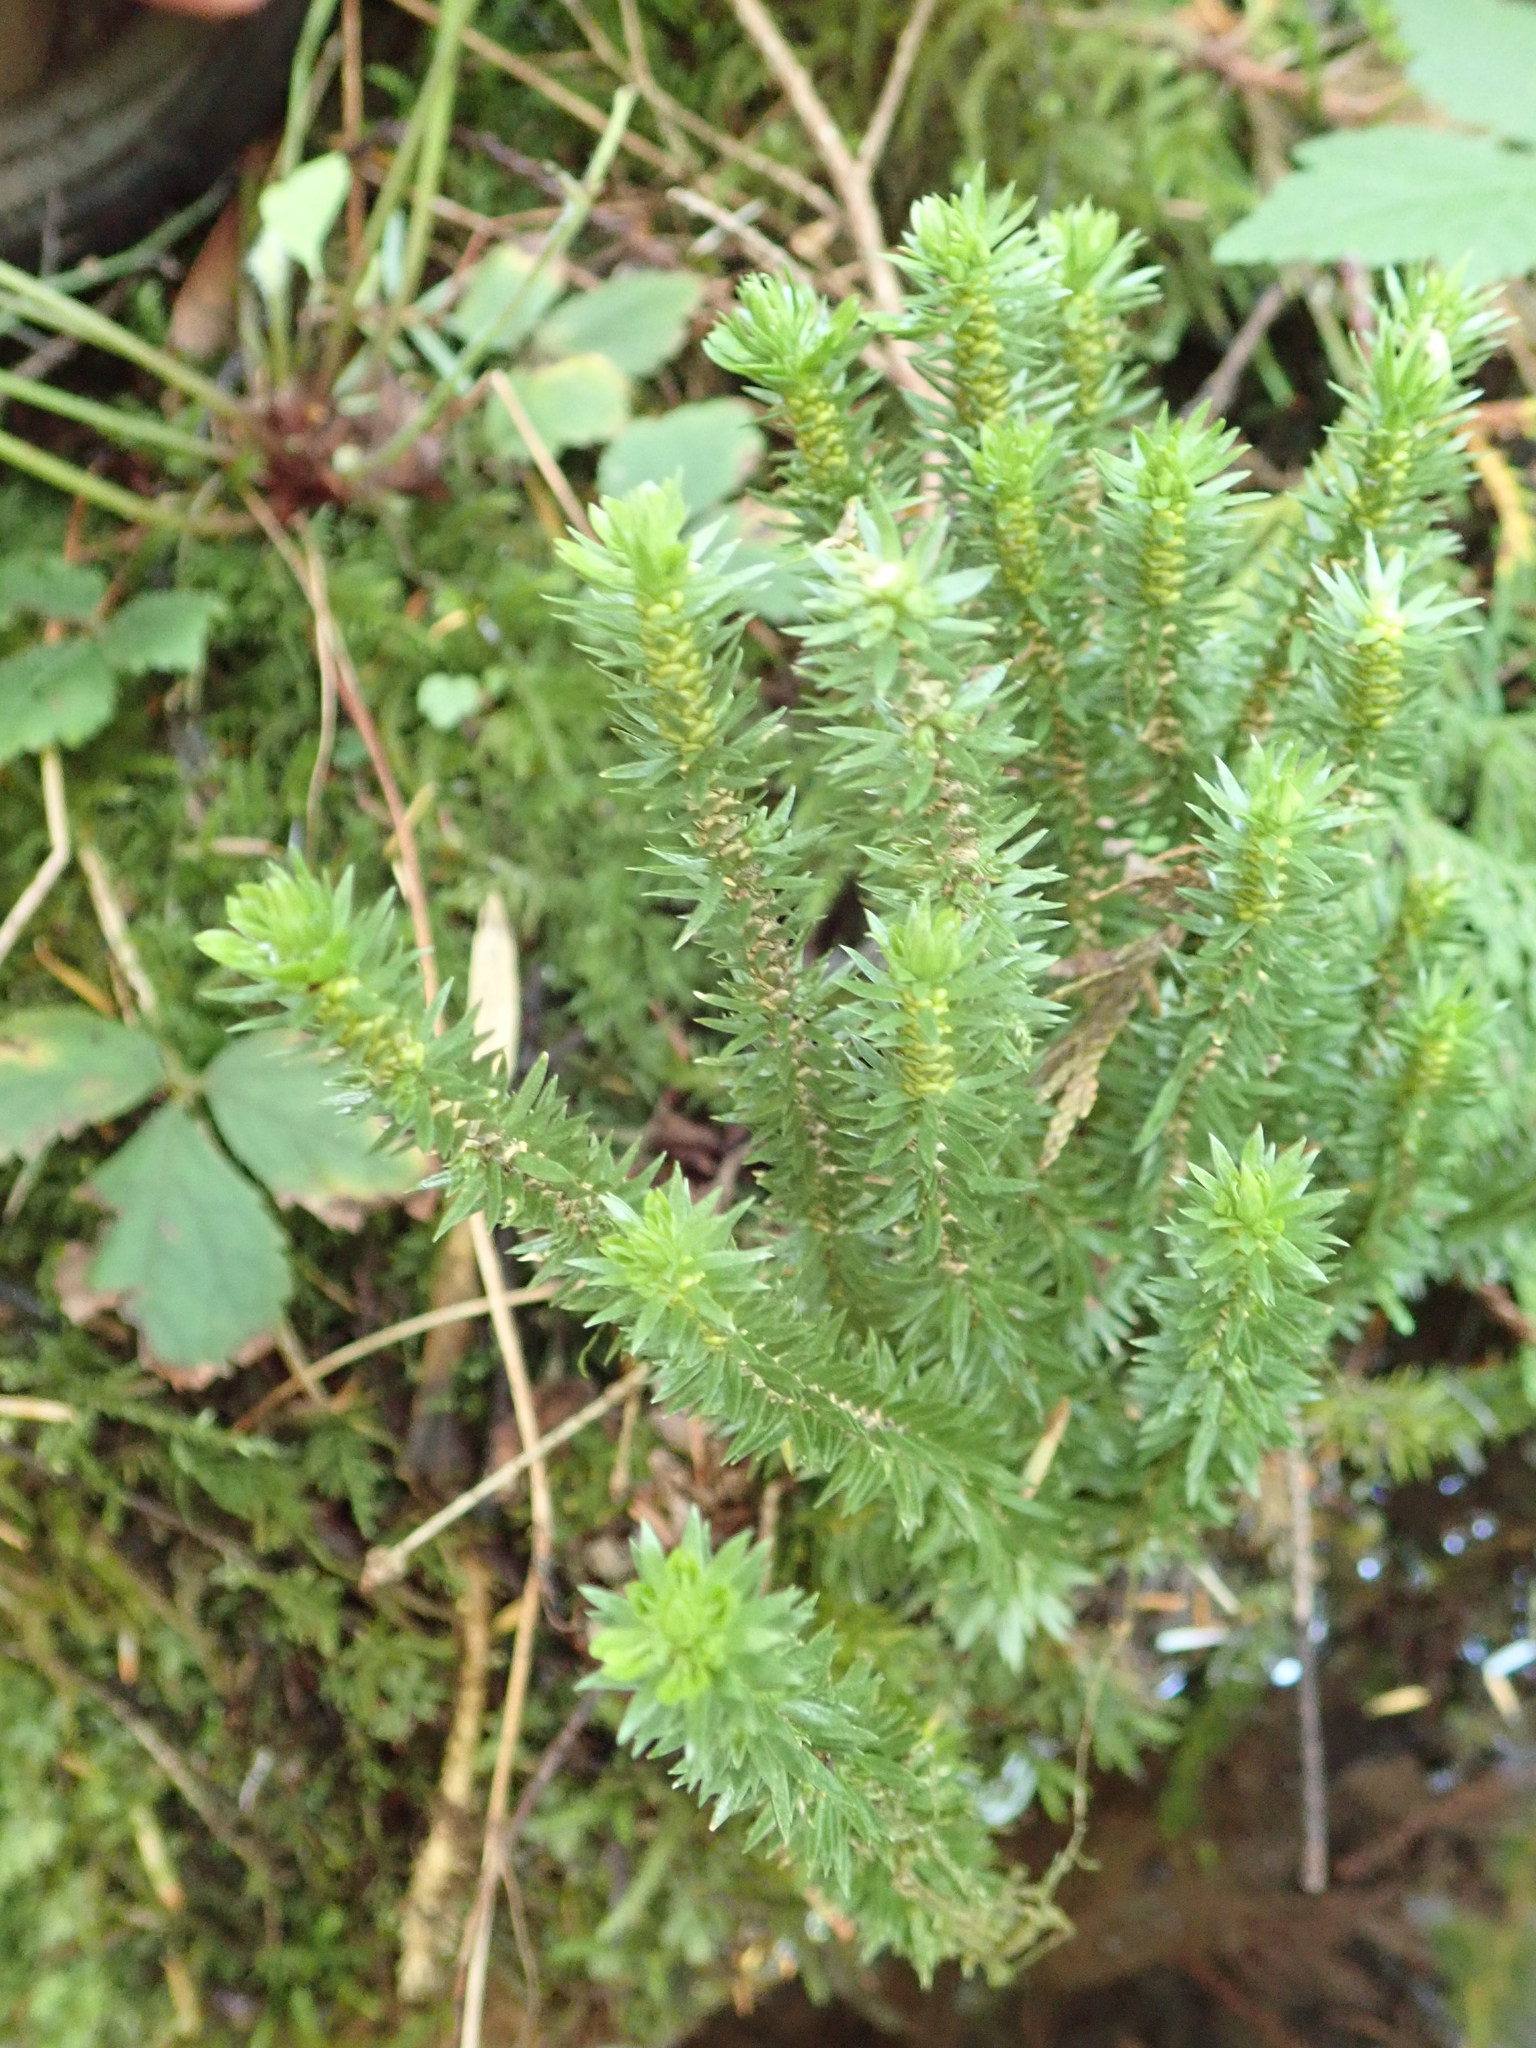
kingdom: Plantae
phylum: Tracheophyta
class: Lycopodiopsida
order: Lycopodiales
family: Lycopodiaceae
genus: Huperzia
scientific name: Huperzia occidentalis
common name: Western clubmoss
